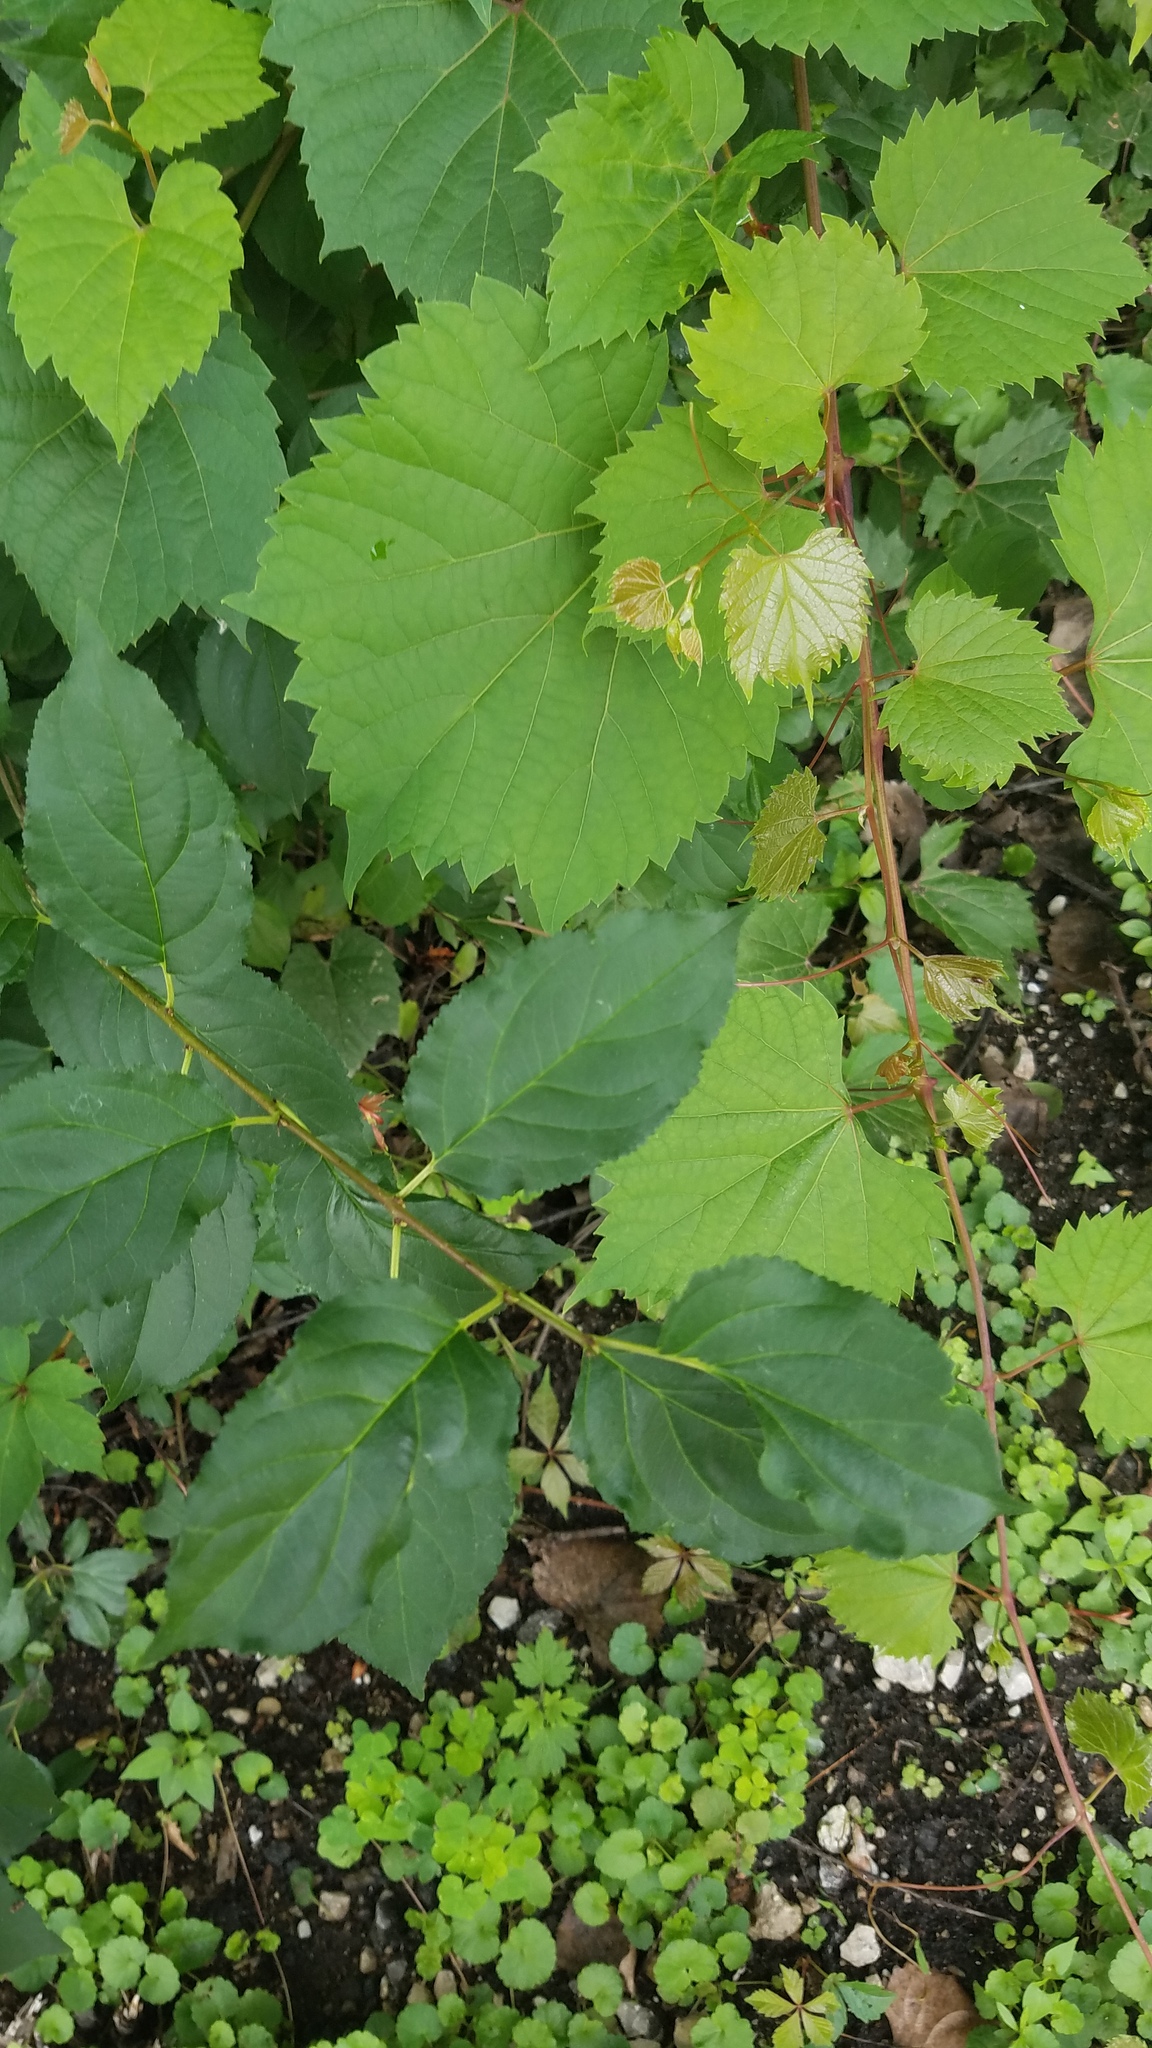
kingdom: Plantae
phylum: Tracheophyta
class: Magnoliopsida
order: Rosales
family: Rhamnaceae
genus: Rhamnus
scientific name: Rhamnus cathartica
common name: Common buckthorn
